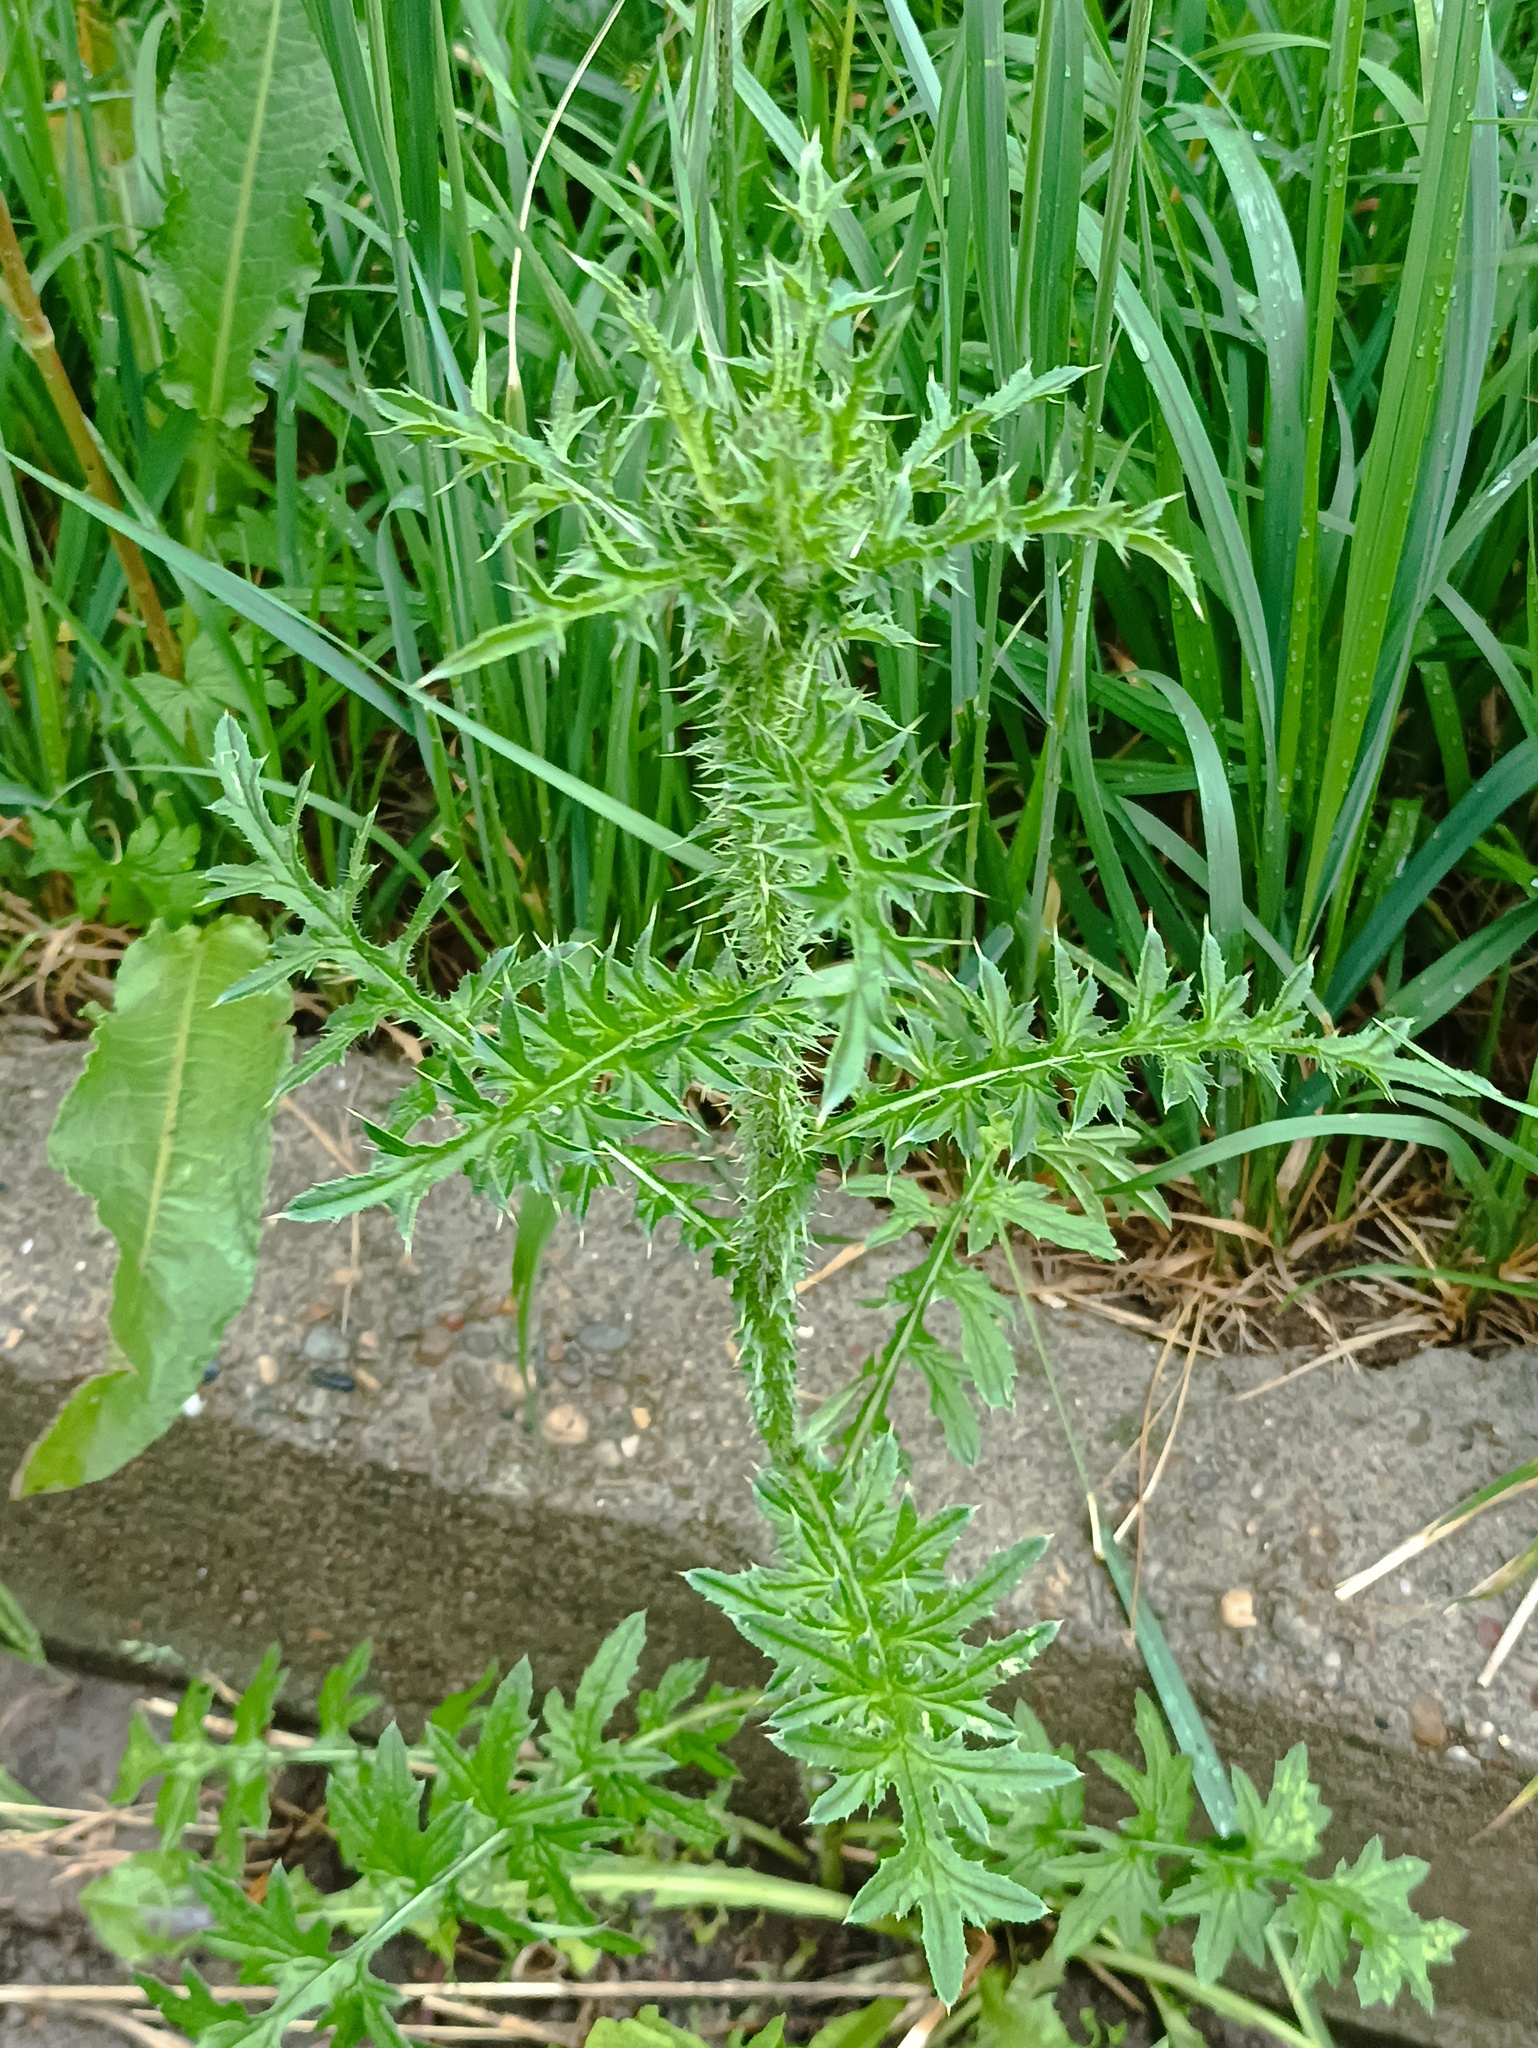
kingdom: Plantae
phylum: Tracheophyta
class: Magnoliopsida
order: Asterales
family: Asteraceae
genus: Carduus
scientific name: Carduus acanthoides
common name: Plumeless thistle
